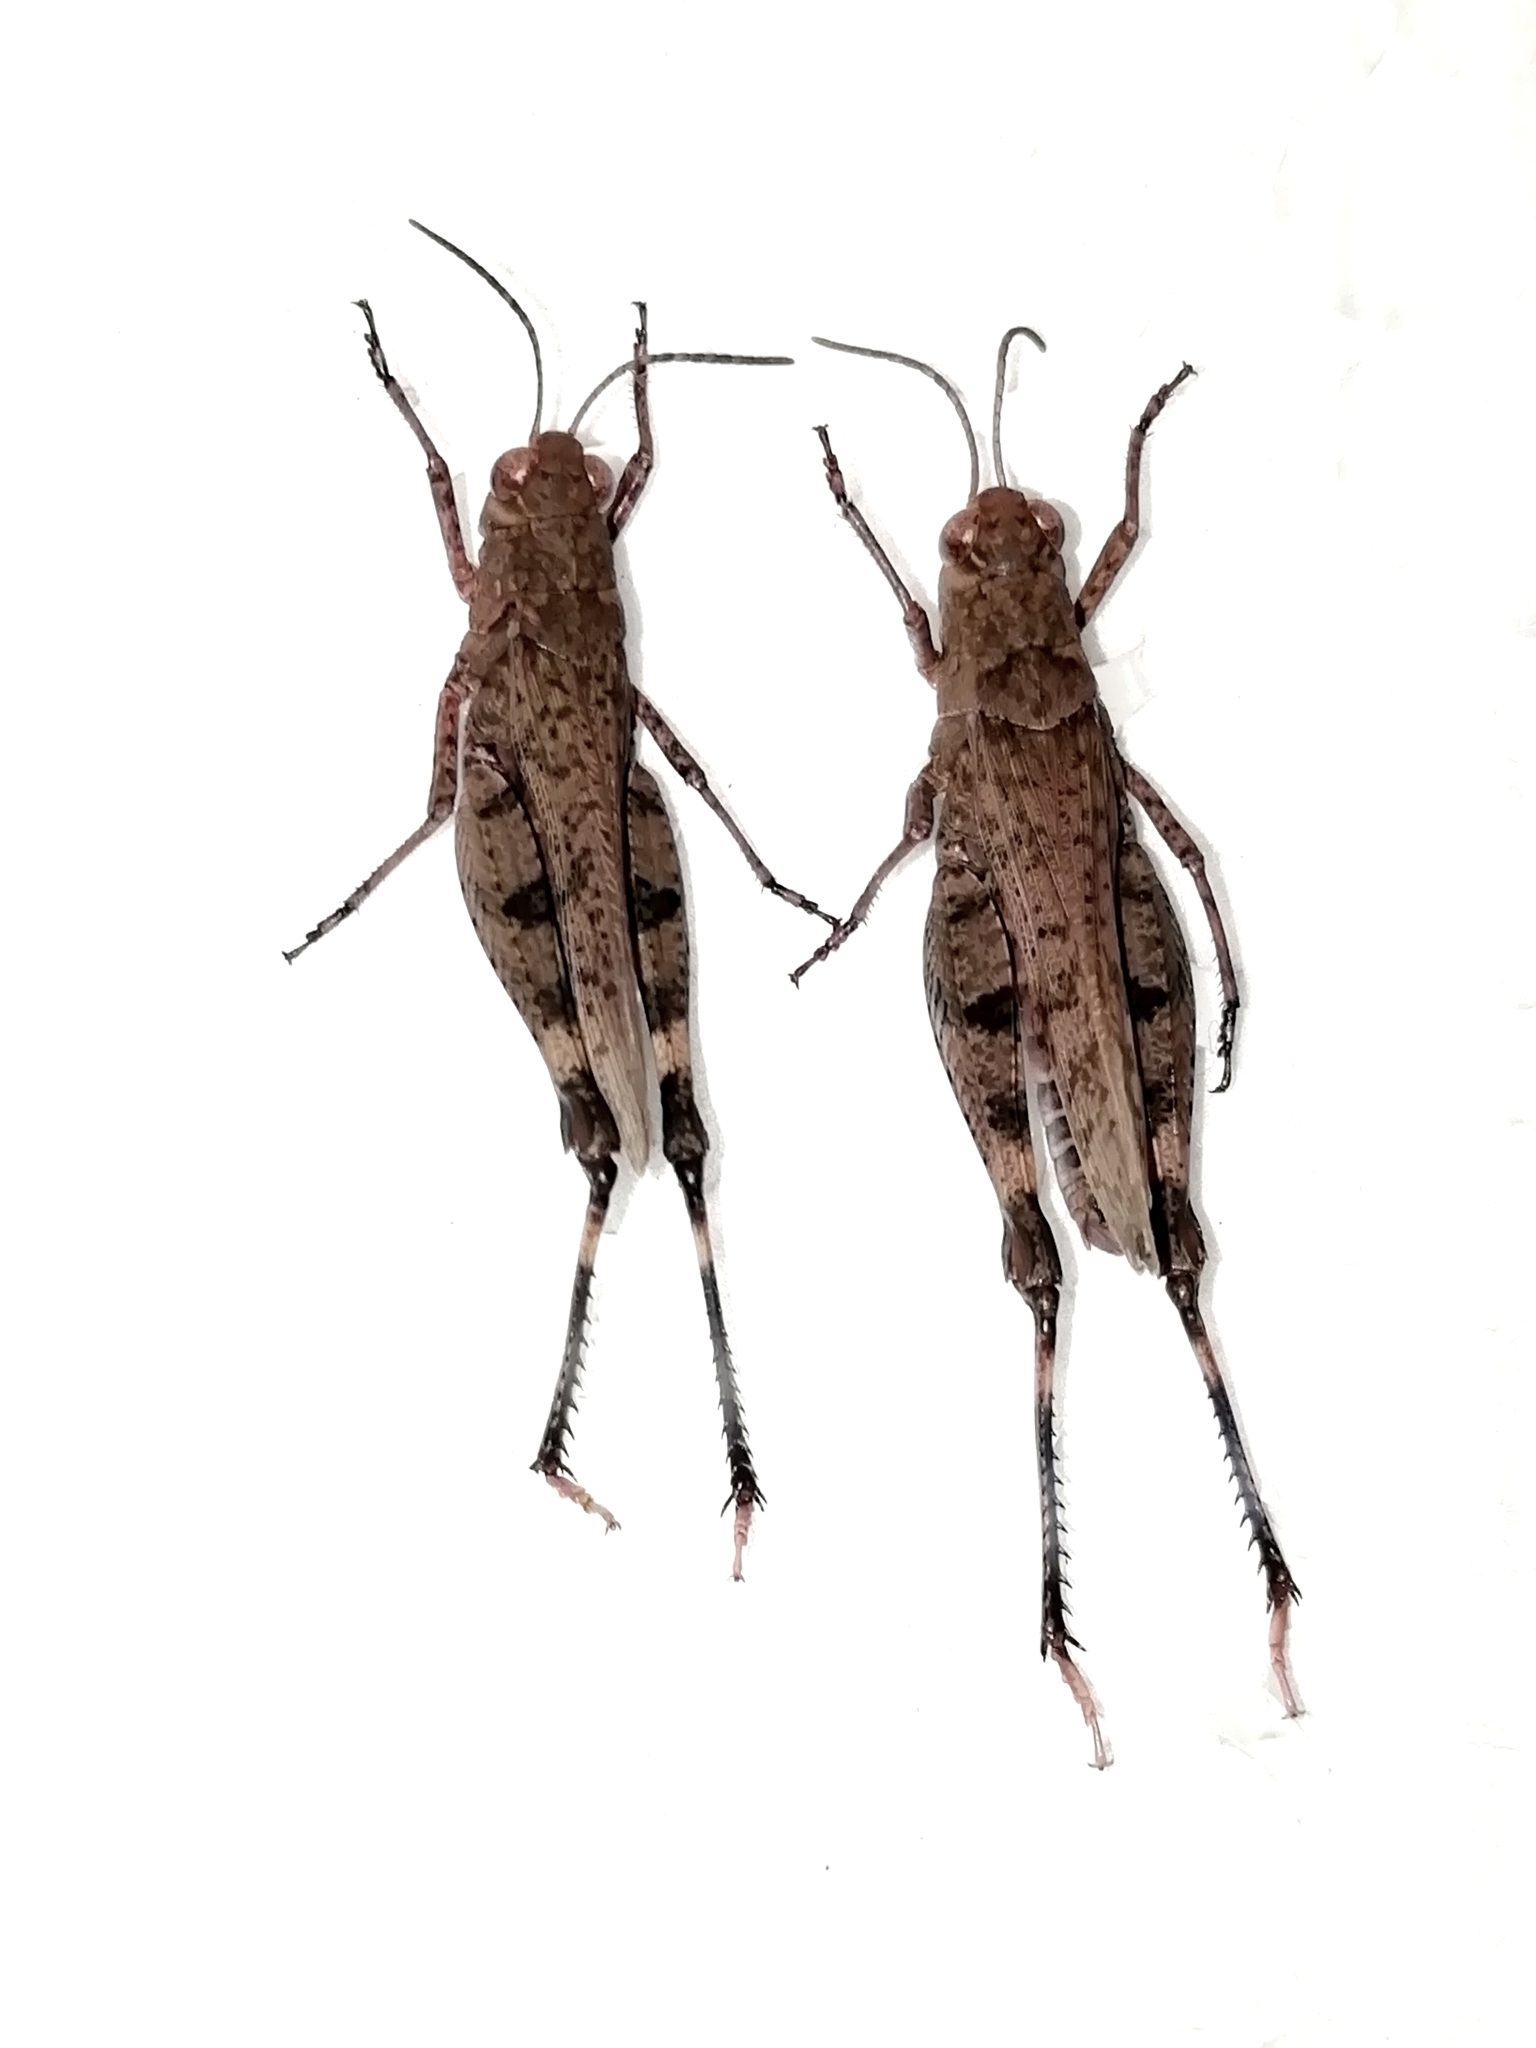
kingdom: Animalia
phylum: Arthropoda
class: Insecta
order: Orthoptera
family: Acrididae
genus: Celes
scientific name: Celes skalozubovi
